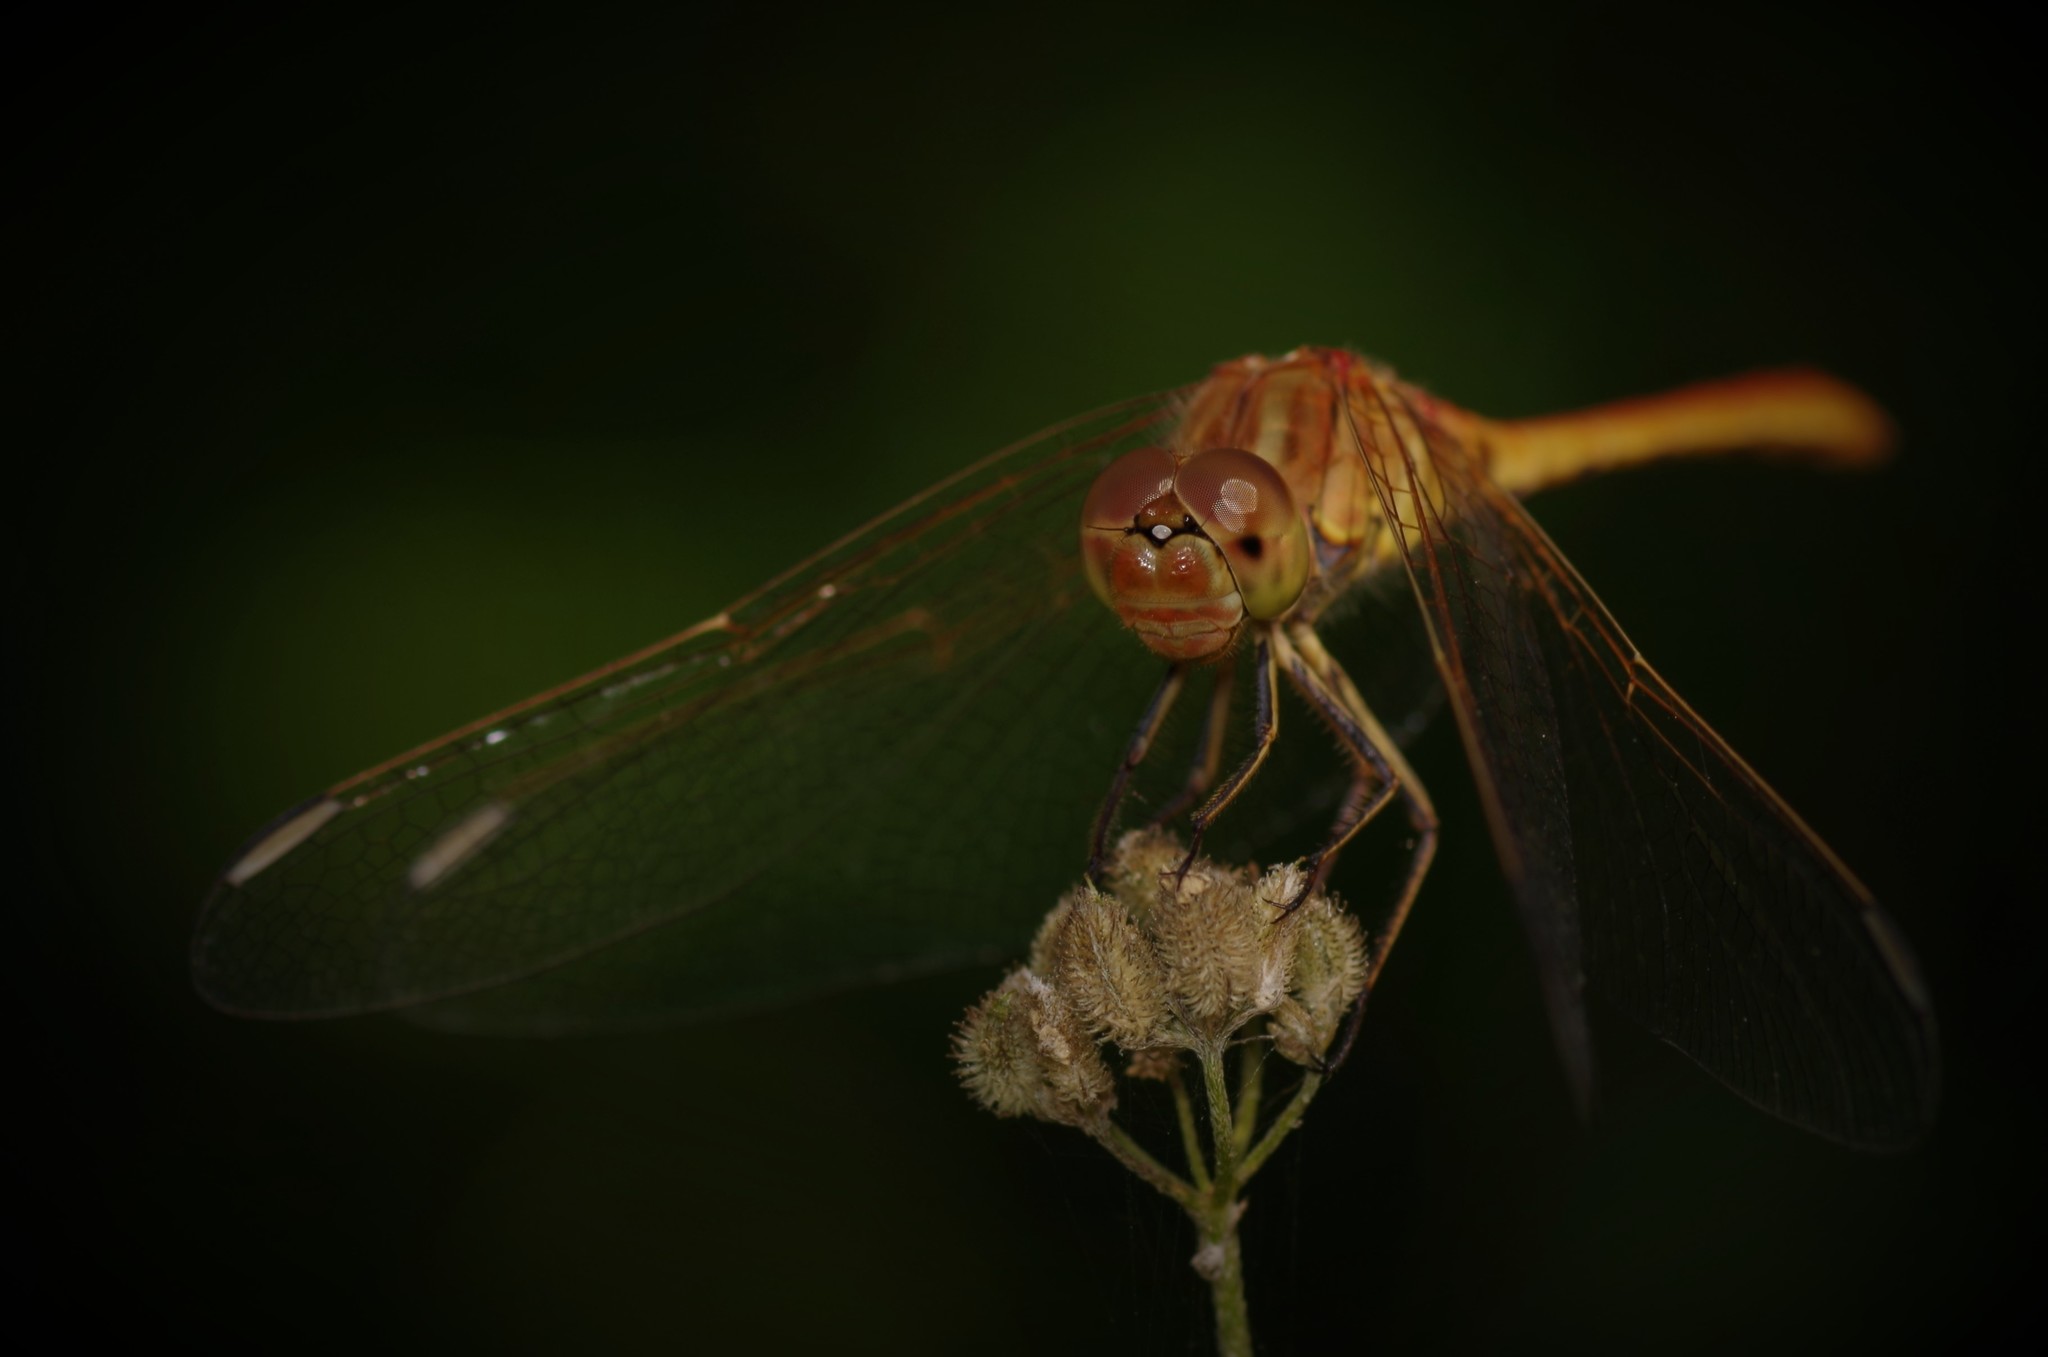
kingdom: Animalia
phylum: Arthropoda
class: Insecta
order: Odonata
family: Libellulidae
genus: Sympetrum
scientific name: Sympetrum meridionale
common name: Southern darter
